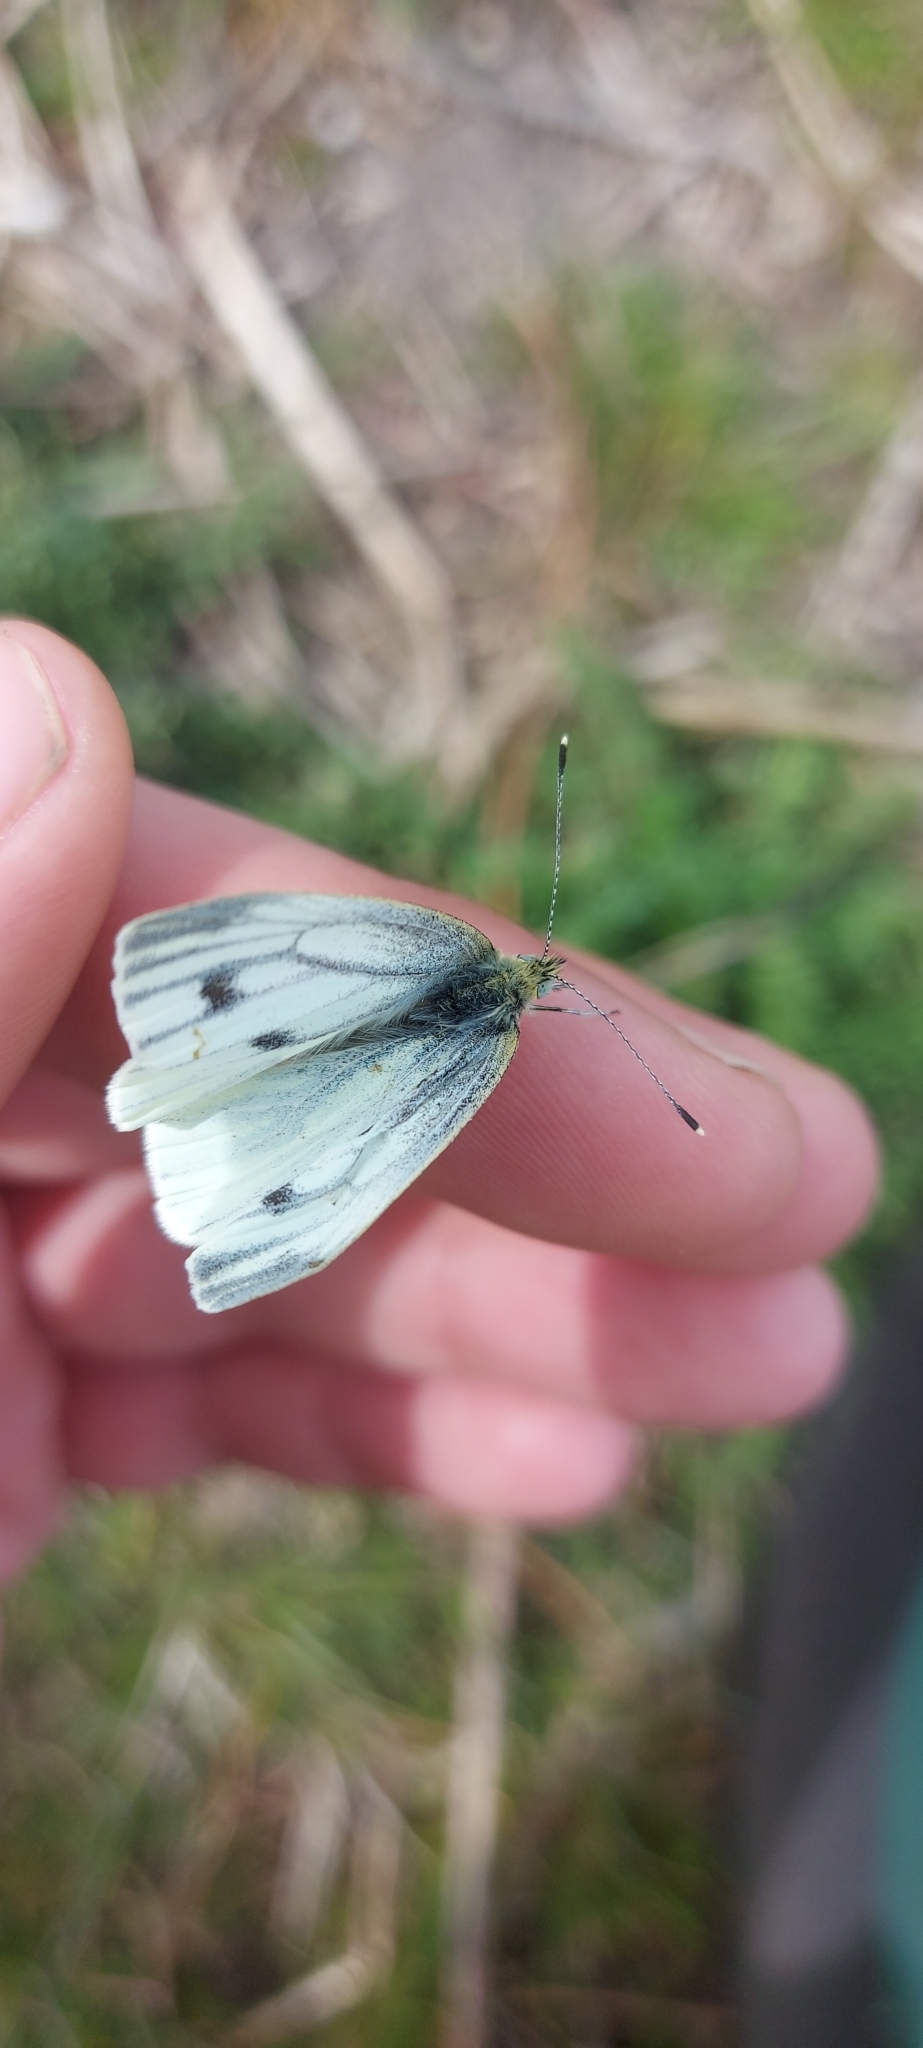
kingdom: Animalia
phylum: Arthropoda
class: Insecta
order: Lepidoptera
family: Pieridae
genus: Pieris
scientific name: Pieris napi
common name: Green-veined white
